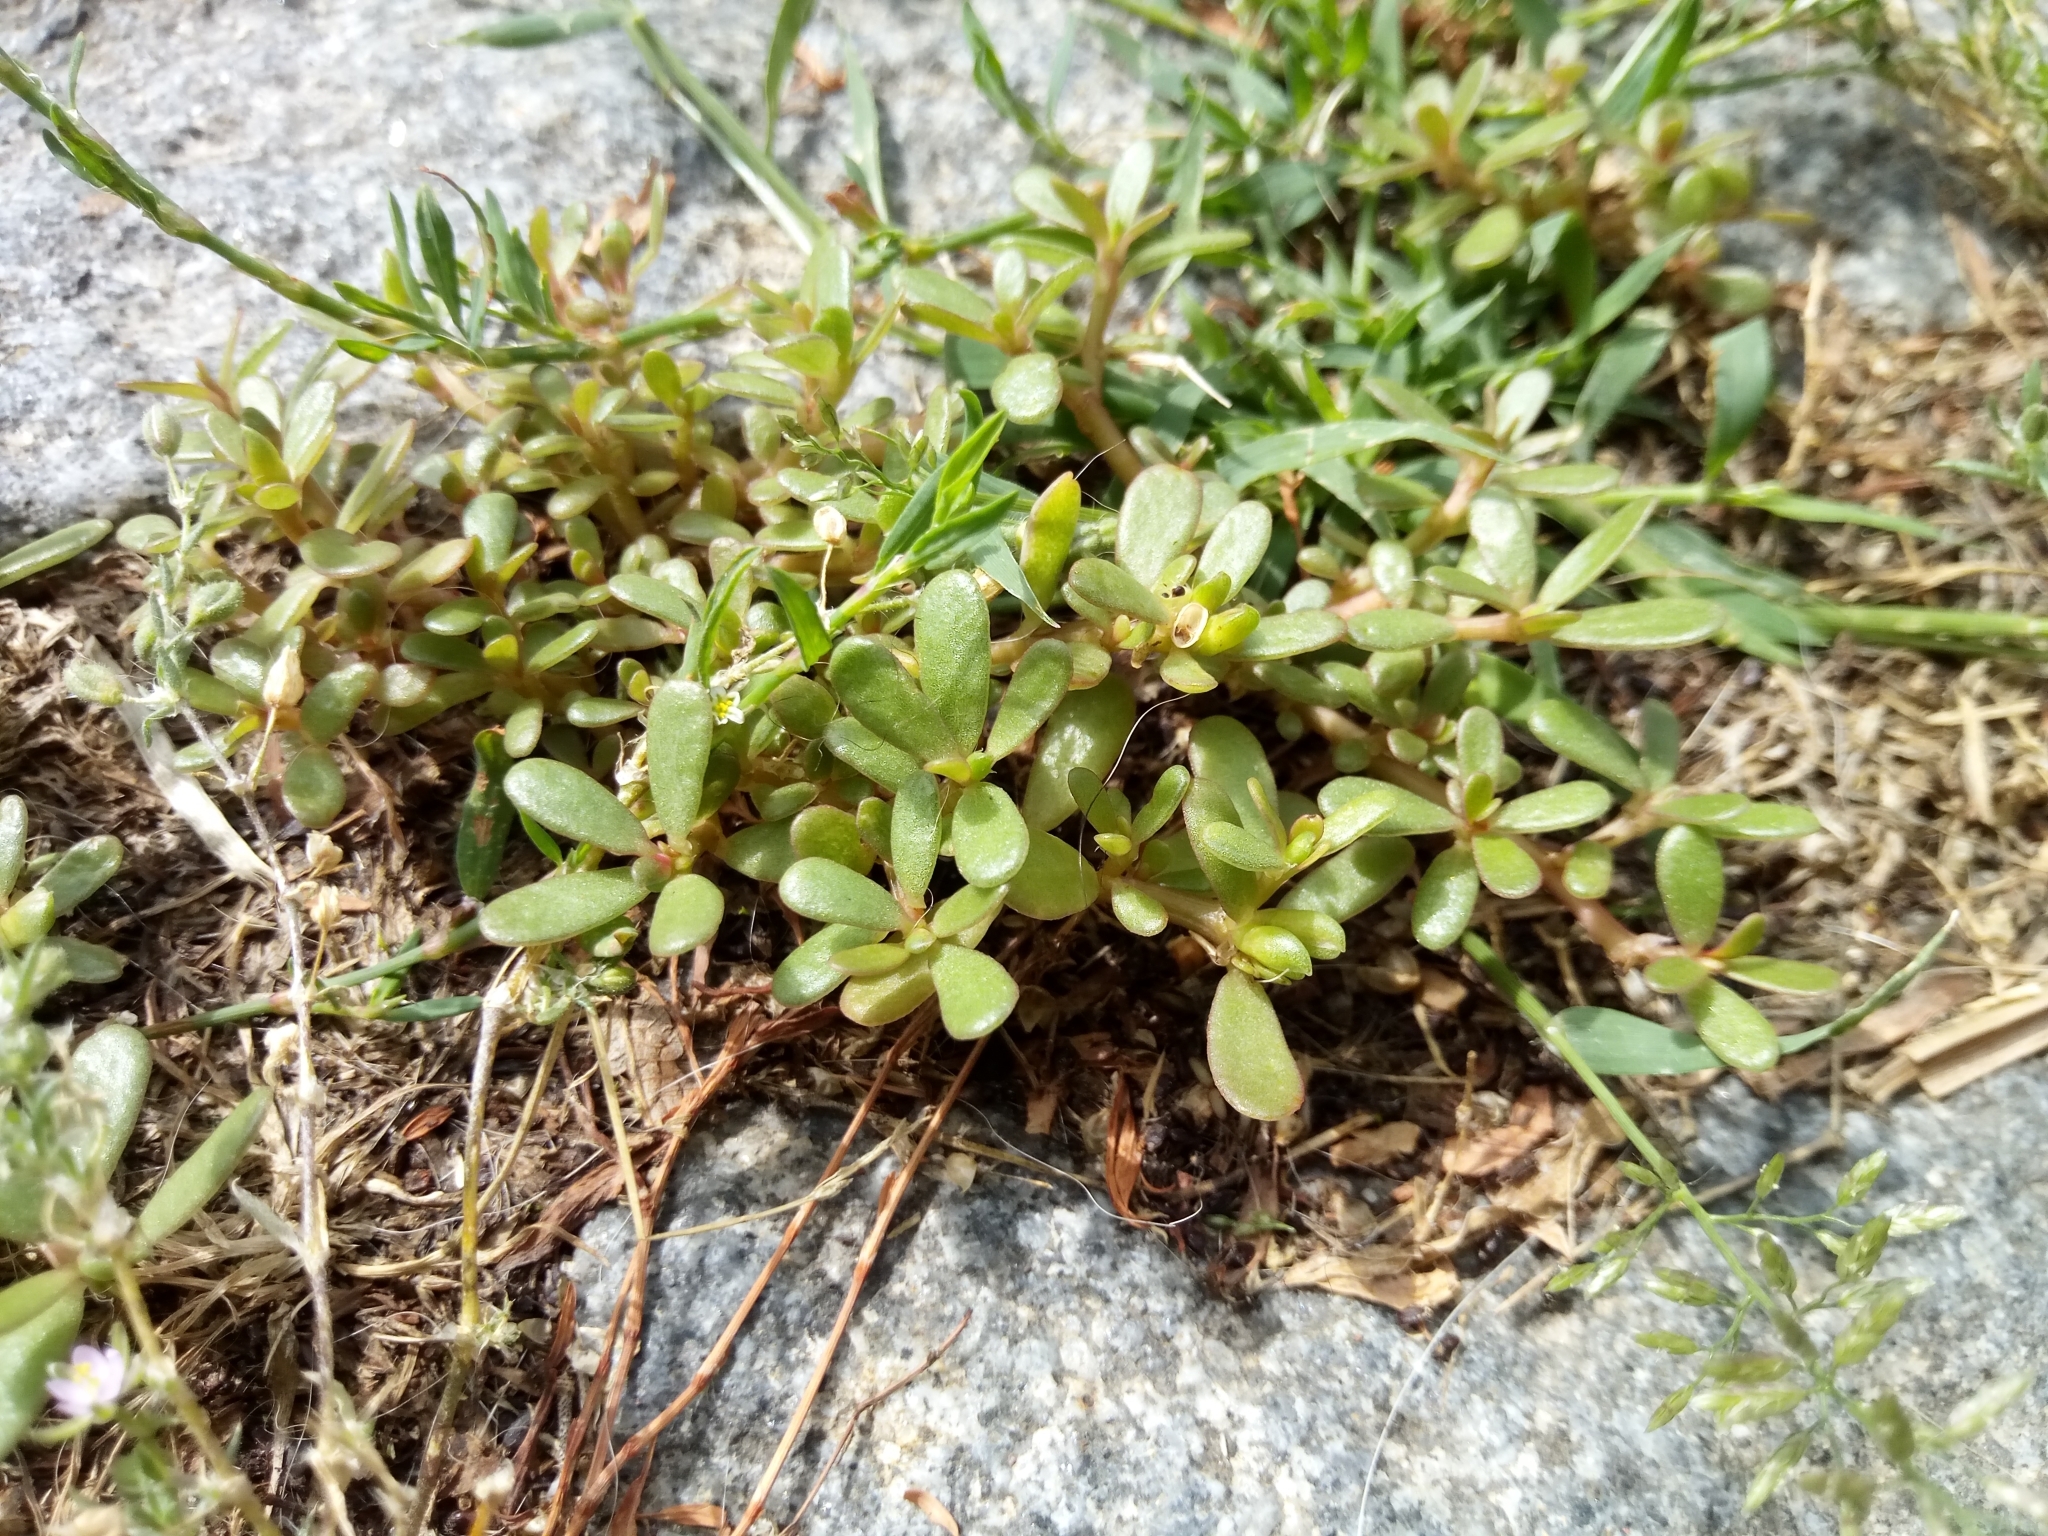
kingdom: Plantae
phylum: Tracheophyta
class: Magnoliopsida
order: Caryophyllales
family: Portulacaceae
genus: Portulaca
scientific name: Portulaca oleracea
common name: Common purslane
